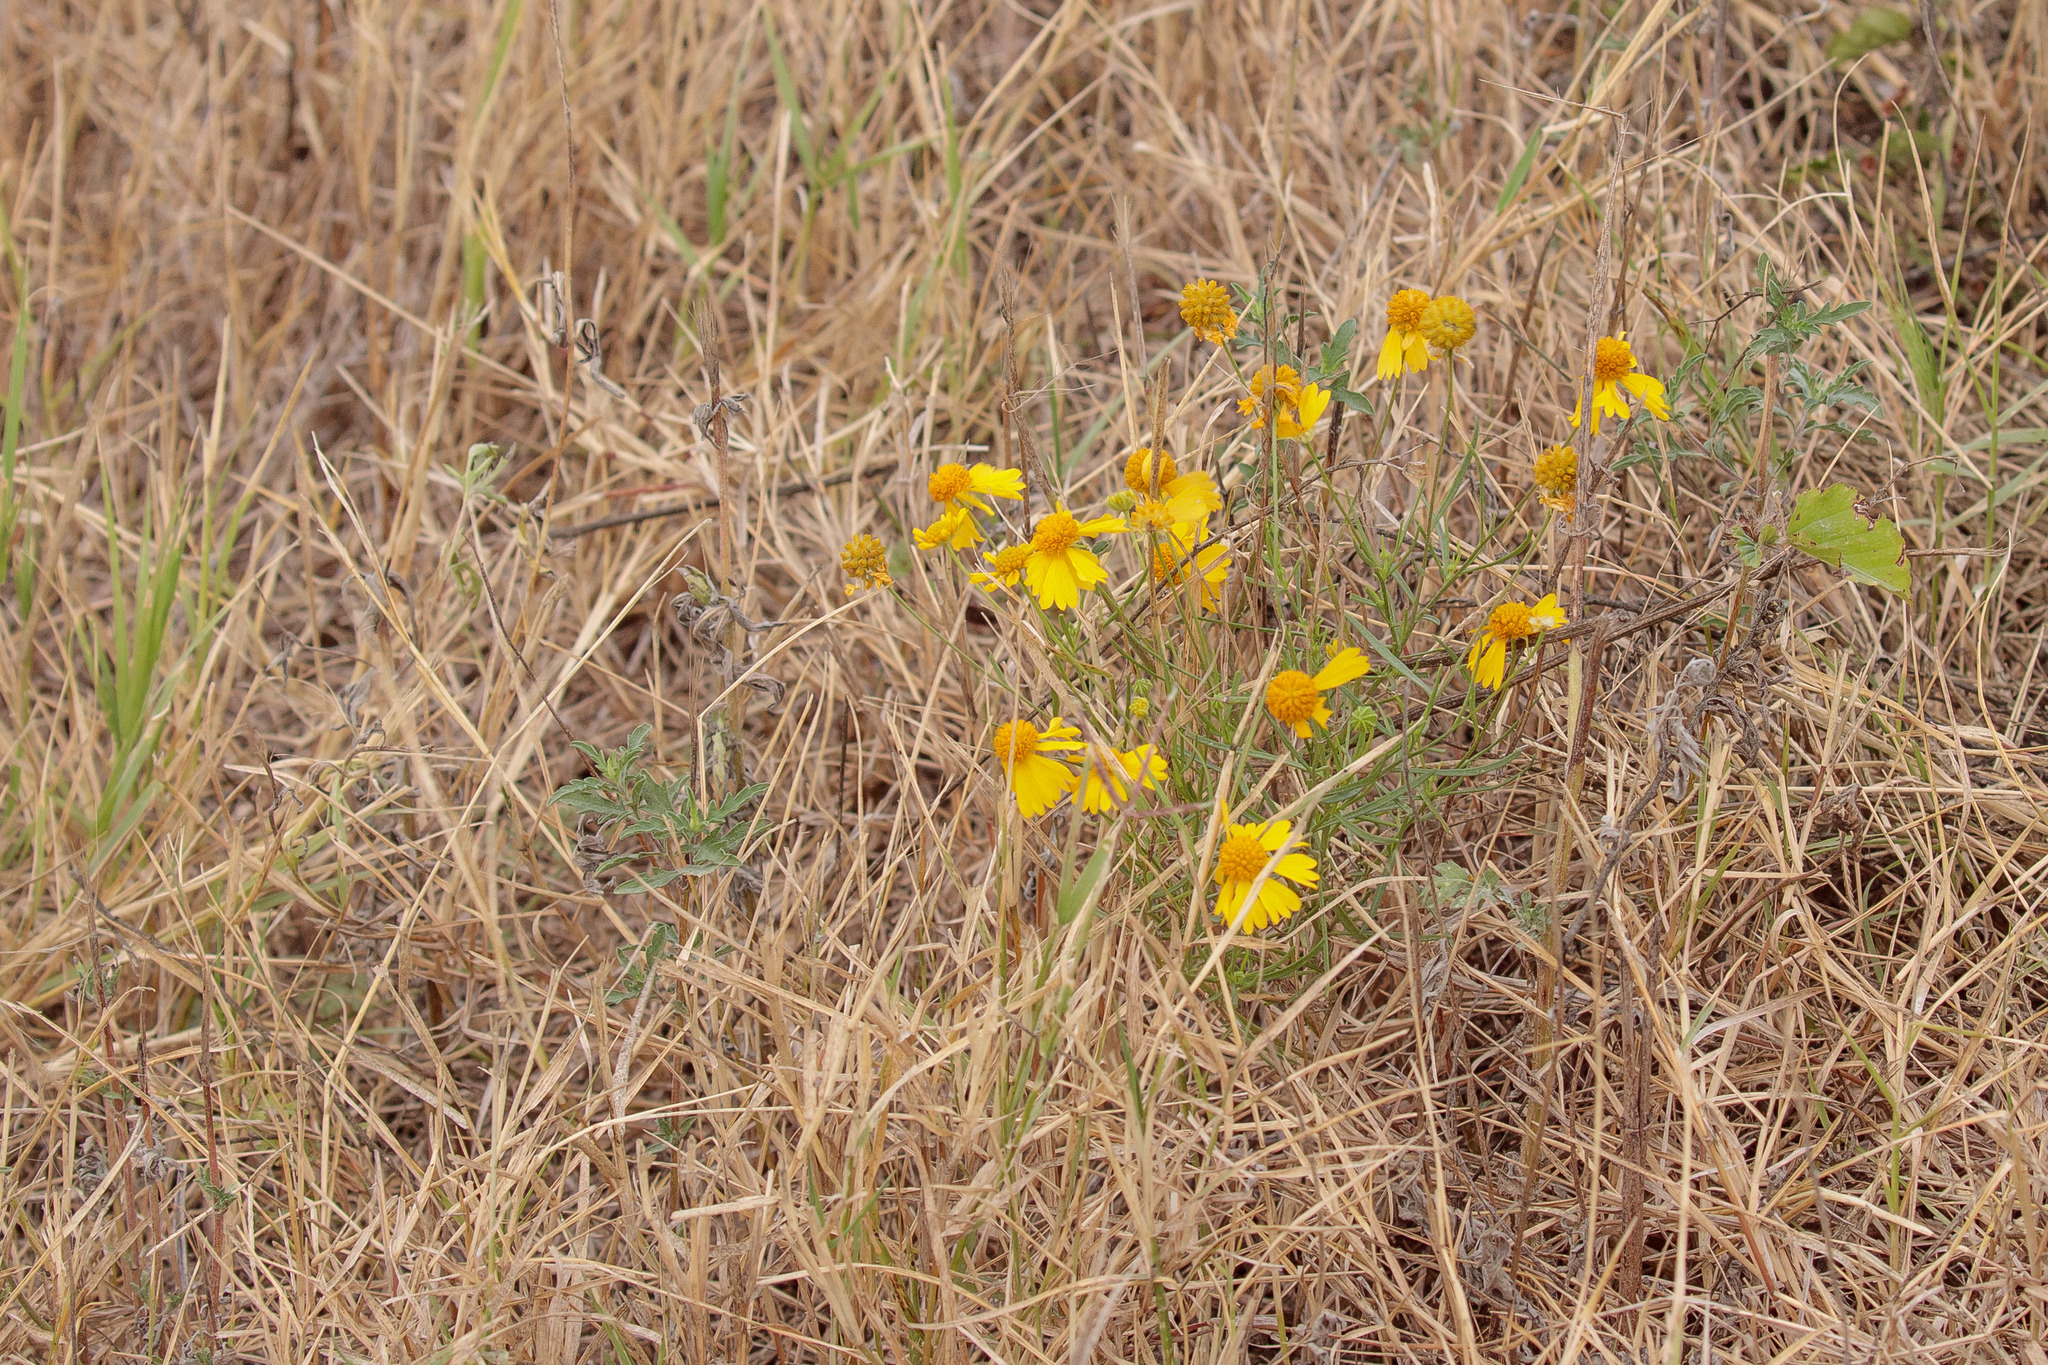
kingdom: Plantae
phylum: Tracheophyta
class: Magnoliopsida
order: Asterales
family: Asteraceae
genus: Helenium
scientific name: Helenium amarum
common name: Bitter sneezeweed
